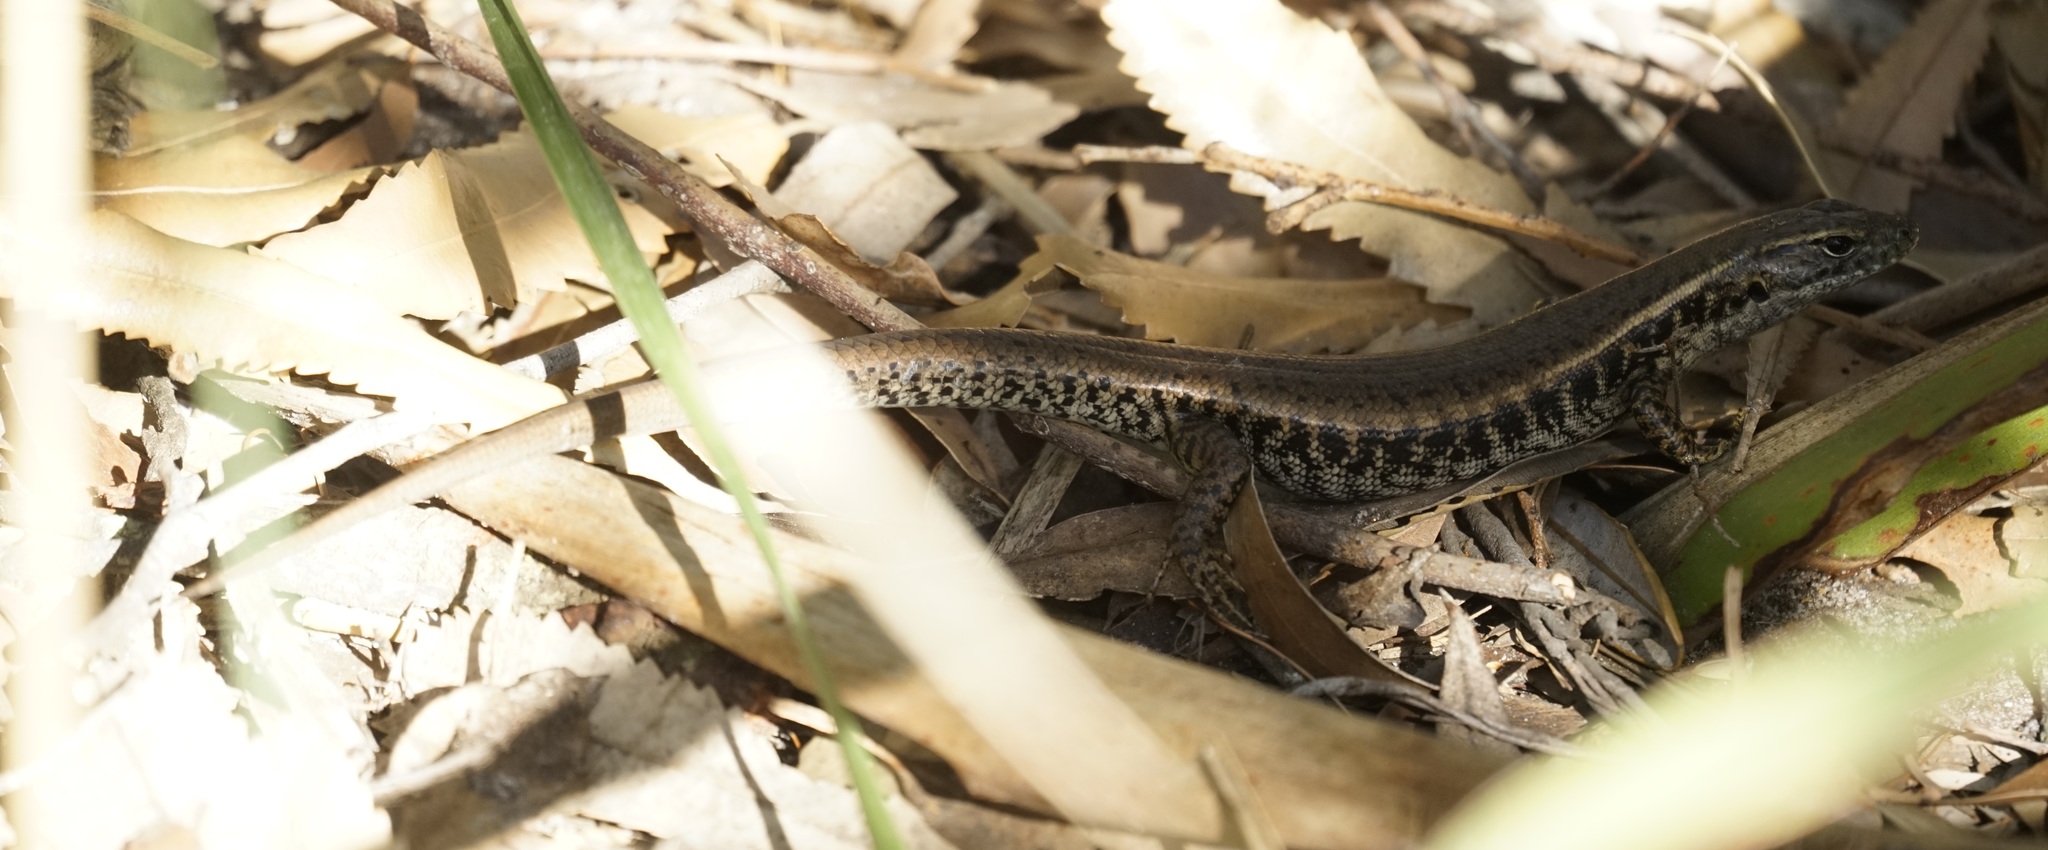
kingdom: Animalia
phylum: Chordata
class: Squamata
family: Scincidae
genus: Eulamprus
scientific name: Eulamprus quoyii
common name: Eastern water skink
